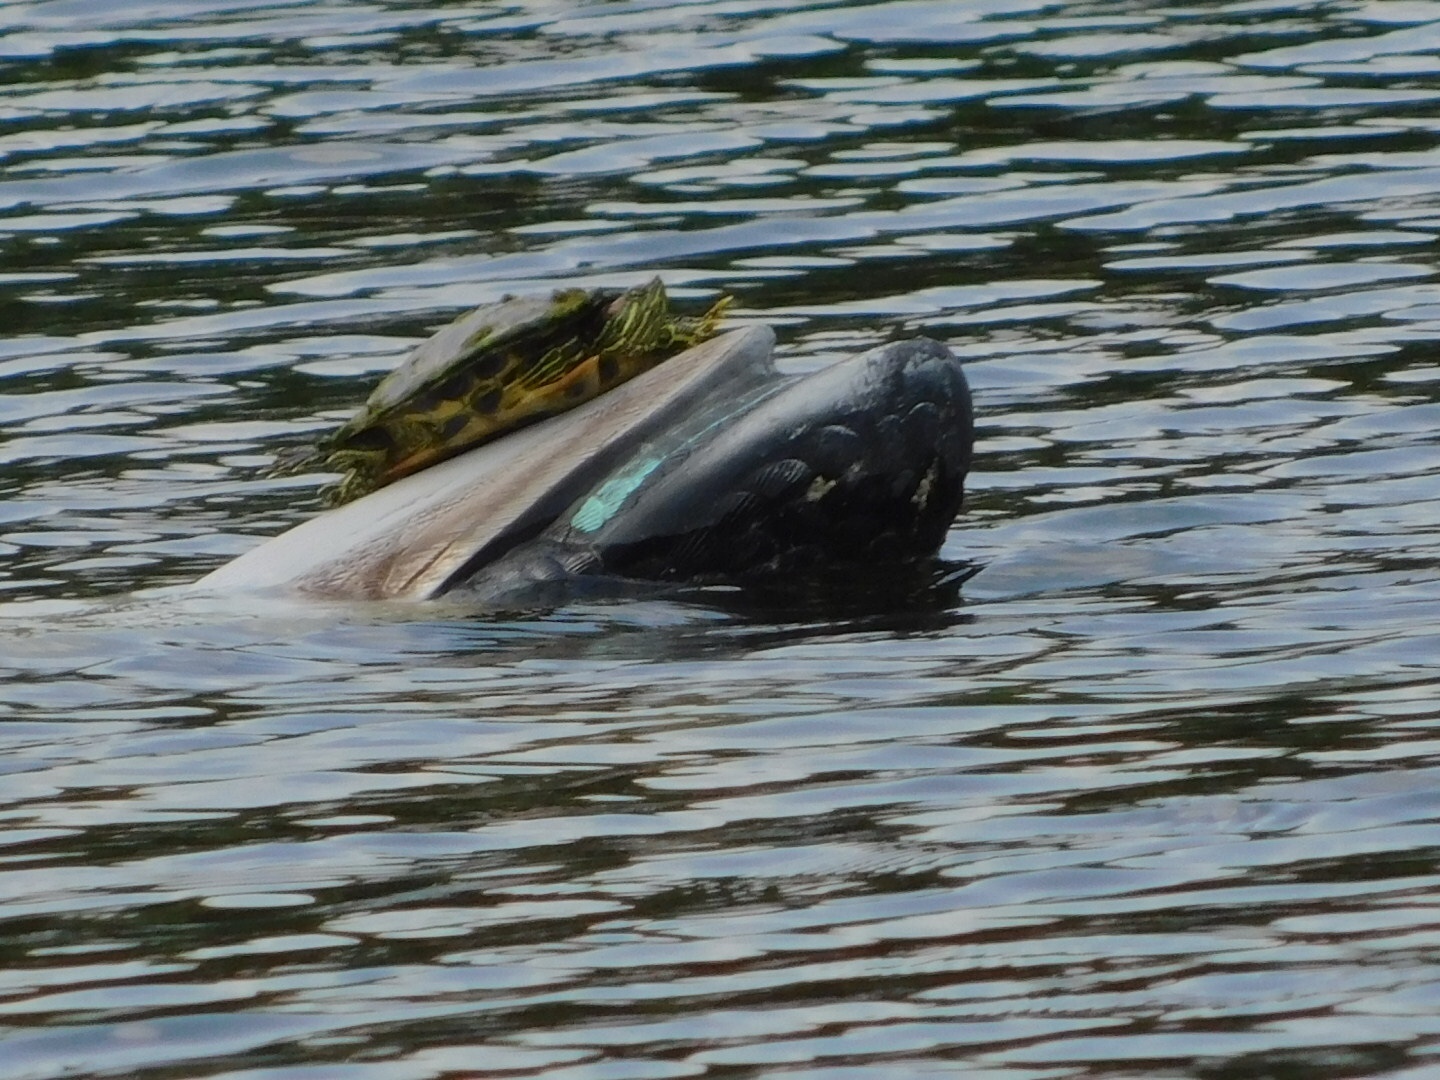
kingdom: Animalia
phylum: Chordata
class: Testudines
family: Emydidae
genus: Trachemys
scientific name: Trachemys scripta
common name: Slider
